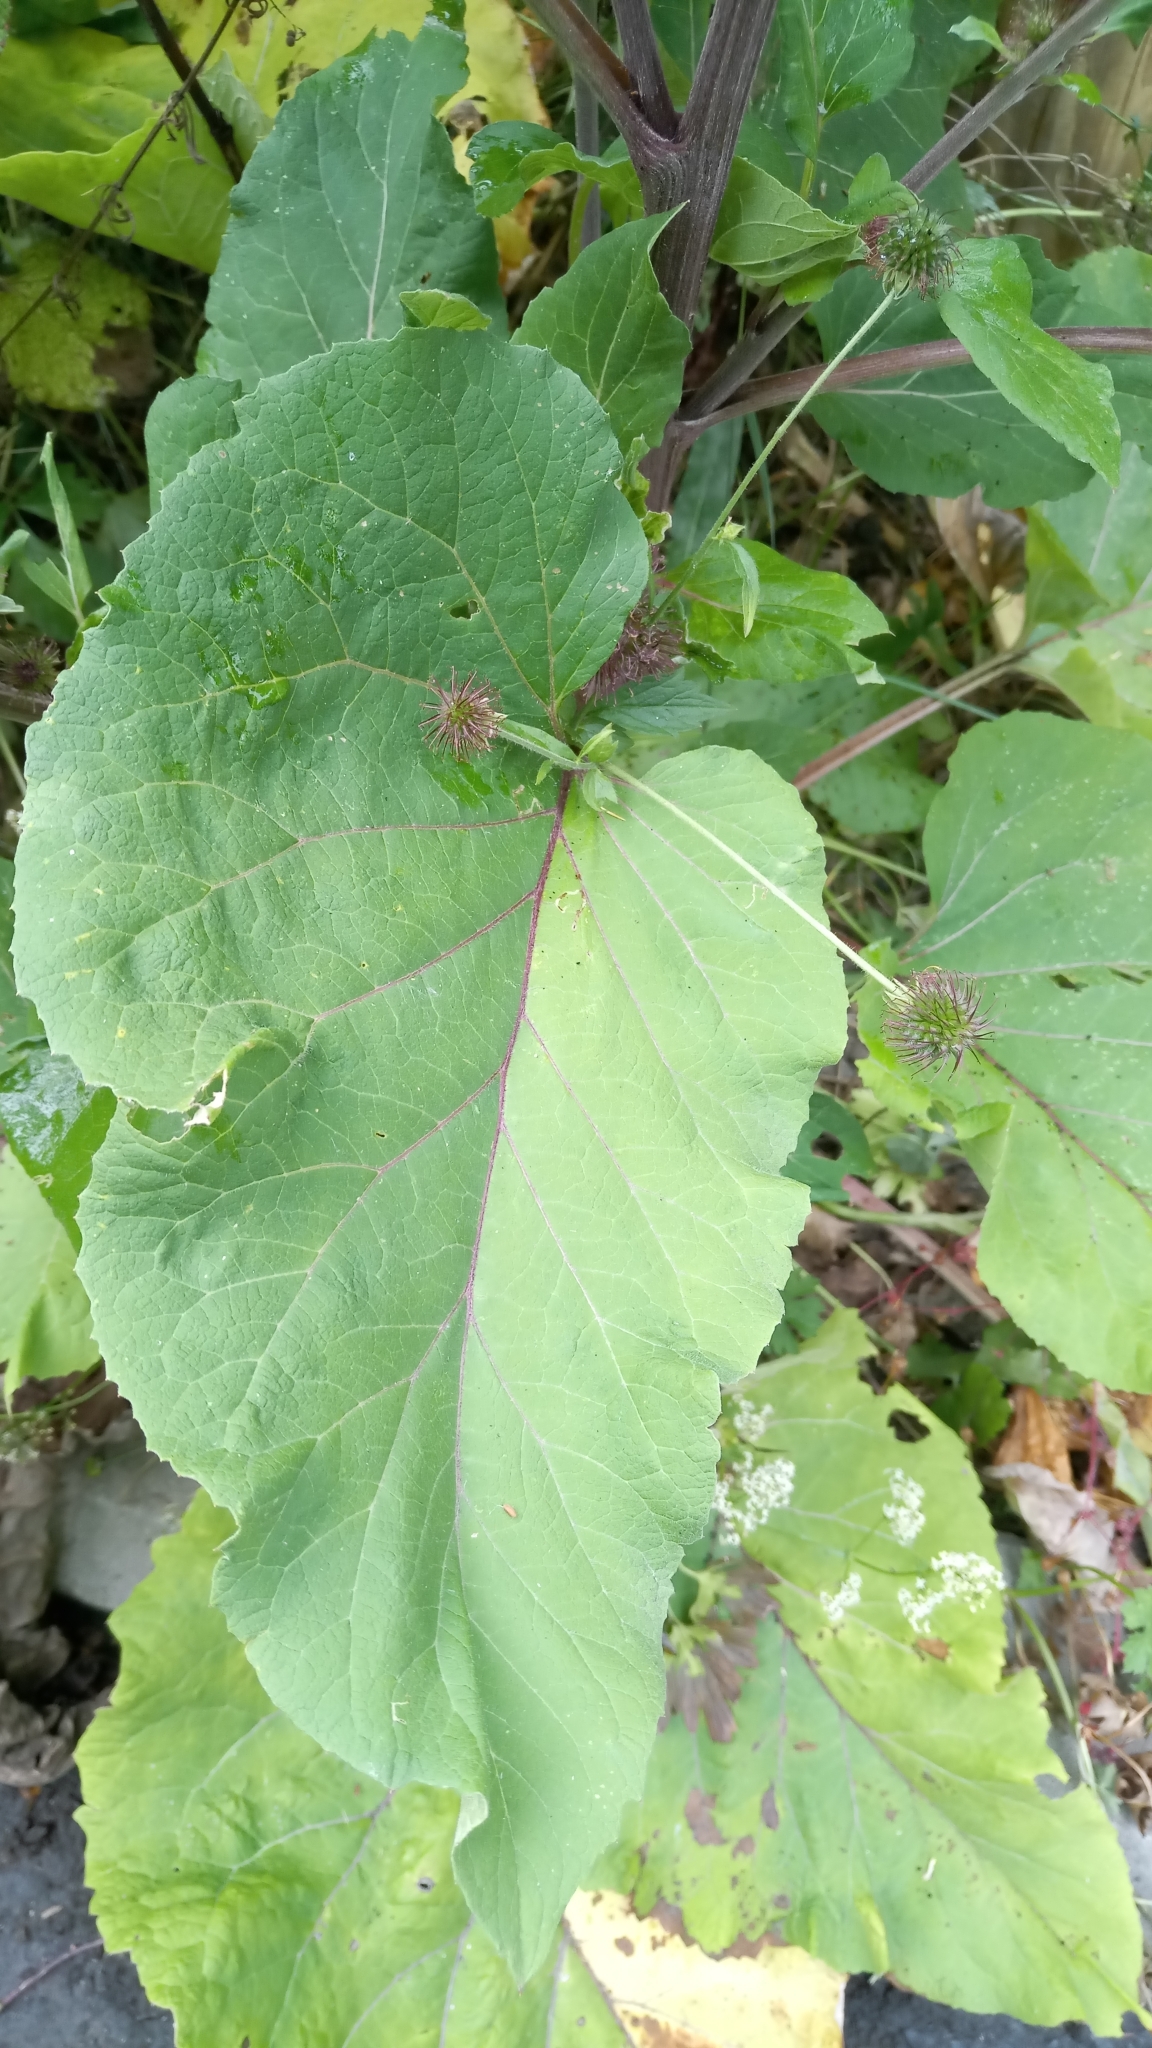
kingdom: Plantae
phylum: Tracheophyta
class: Magnoliopsida
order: Asterales
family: Asteraceae
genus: Arctium
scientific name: Arctium lappa
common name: Greater burdock
